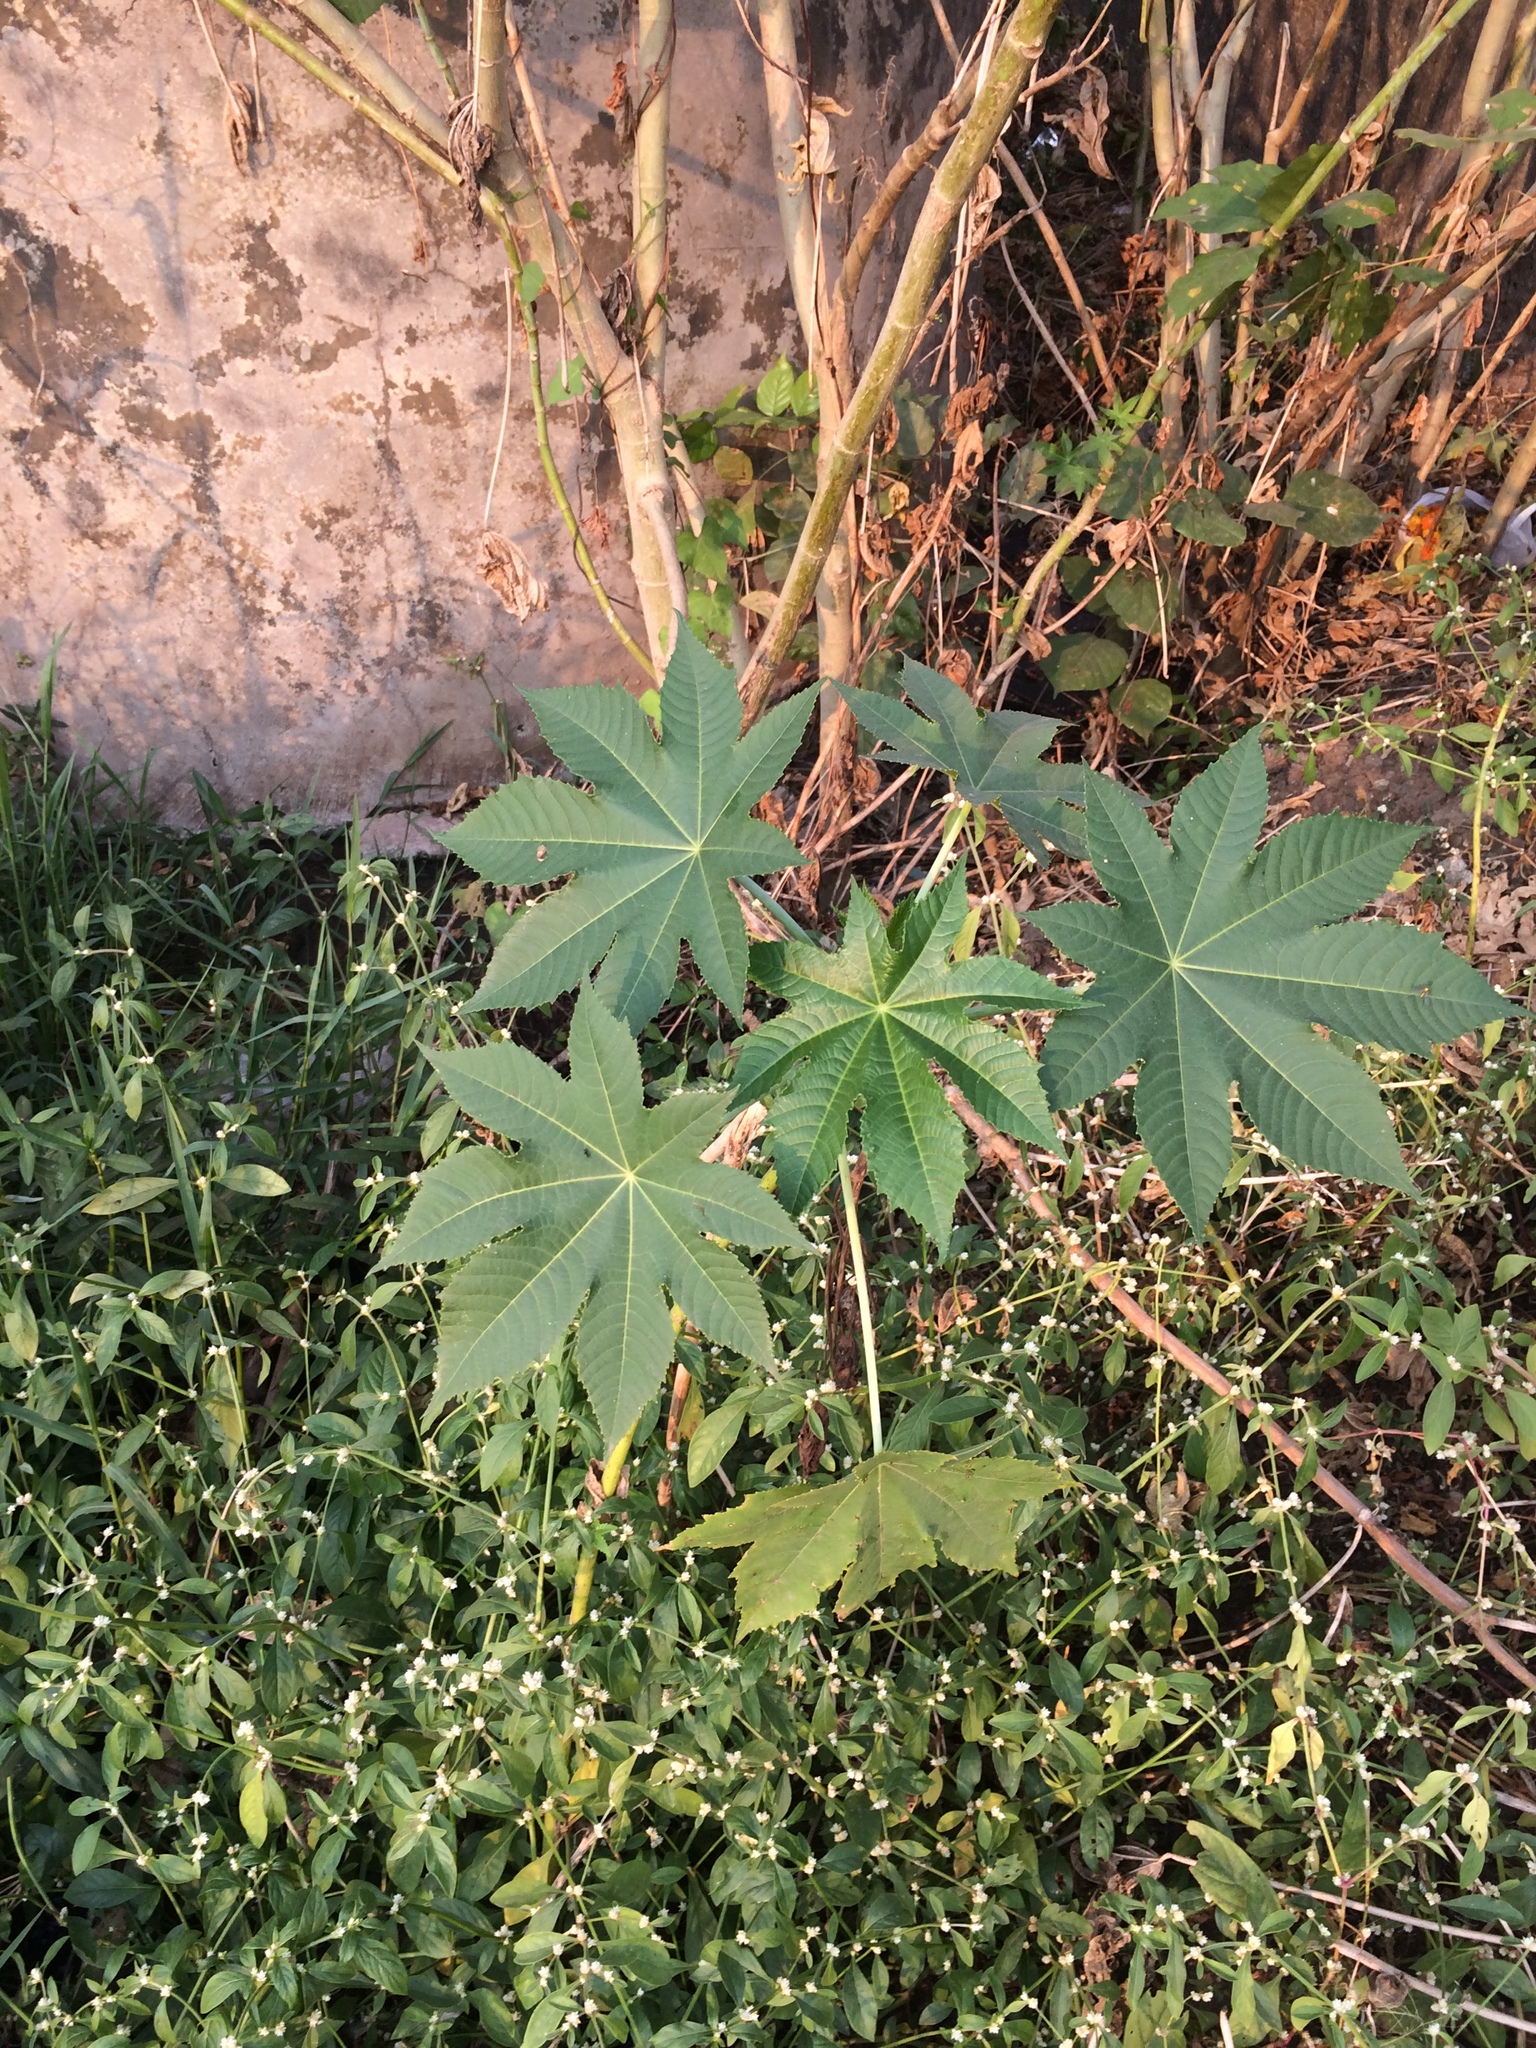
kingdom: Plantae
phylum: Tracheophyta
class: Magnoliopsida
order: Malpighiales
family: Euphorbiaceae
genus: Ricinus
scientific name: Ricinus communis
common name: Castor-oil-plant
